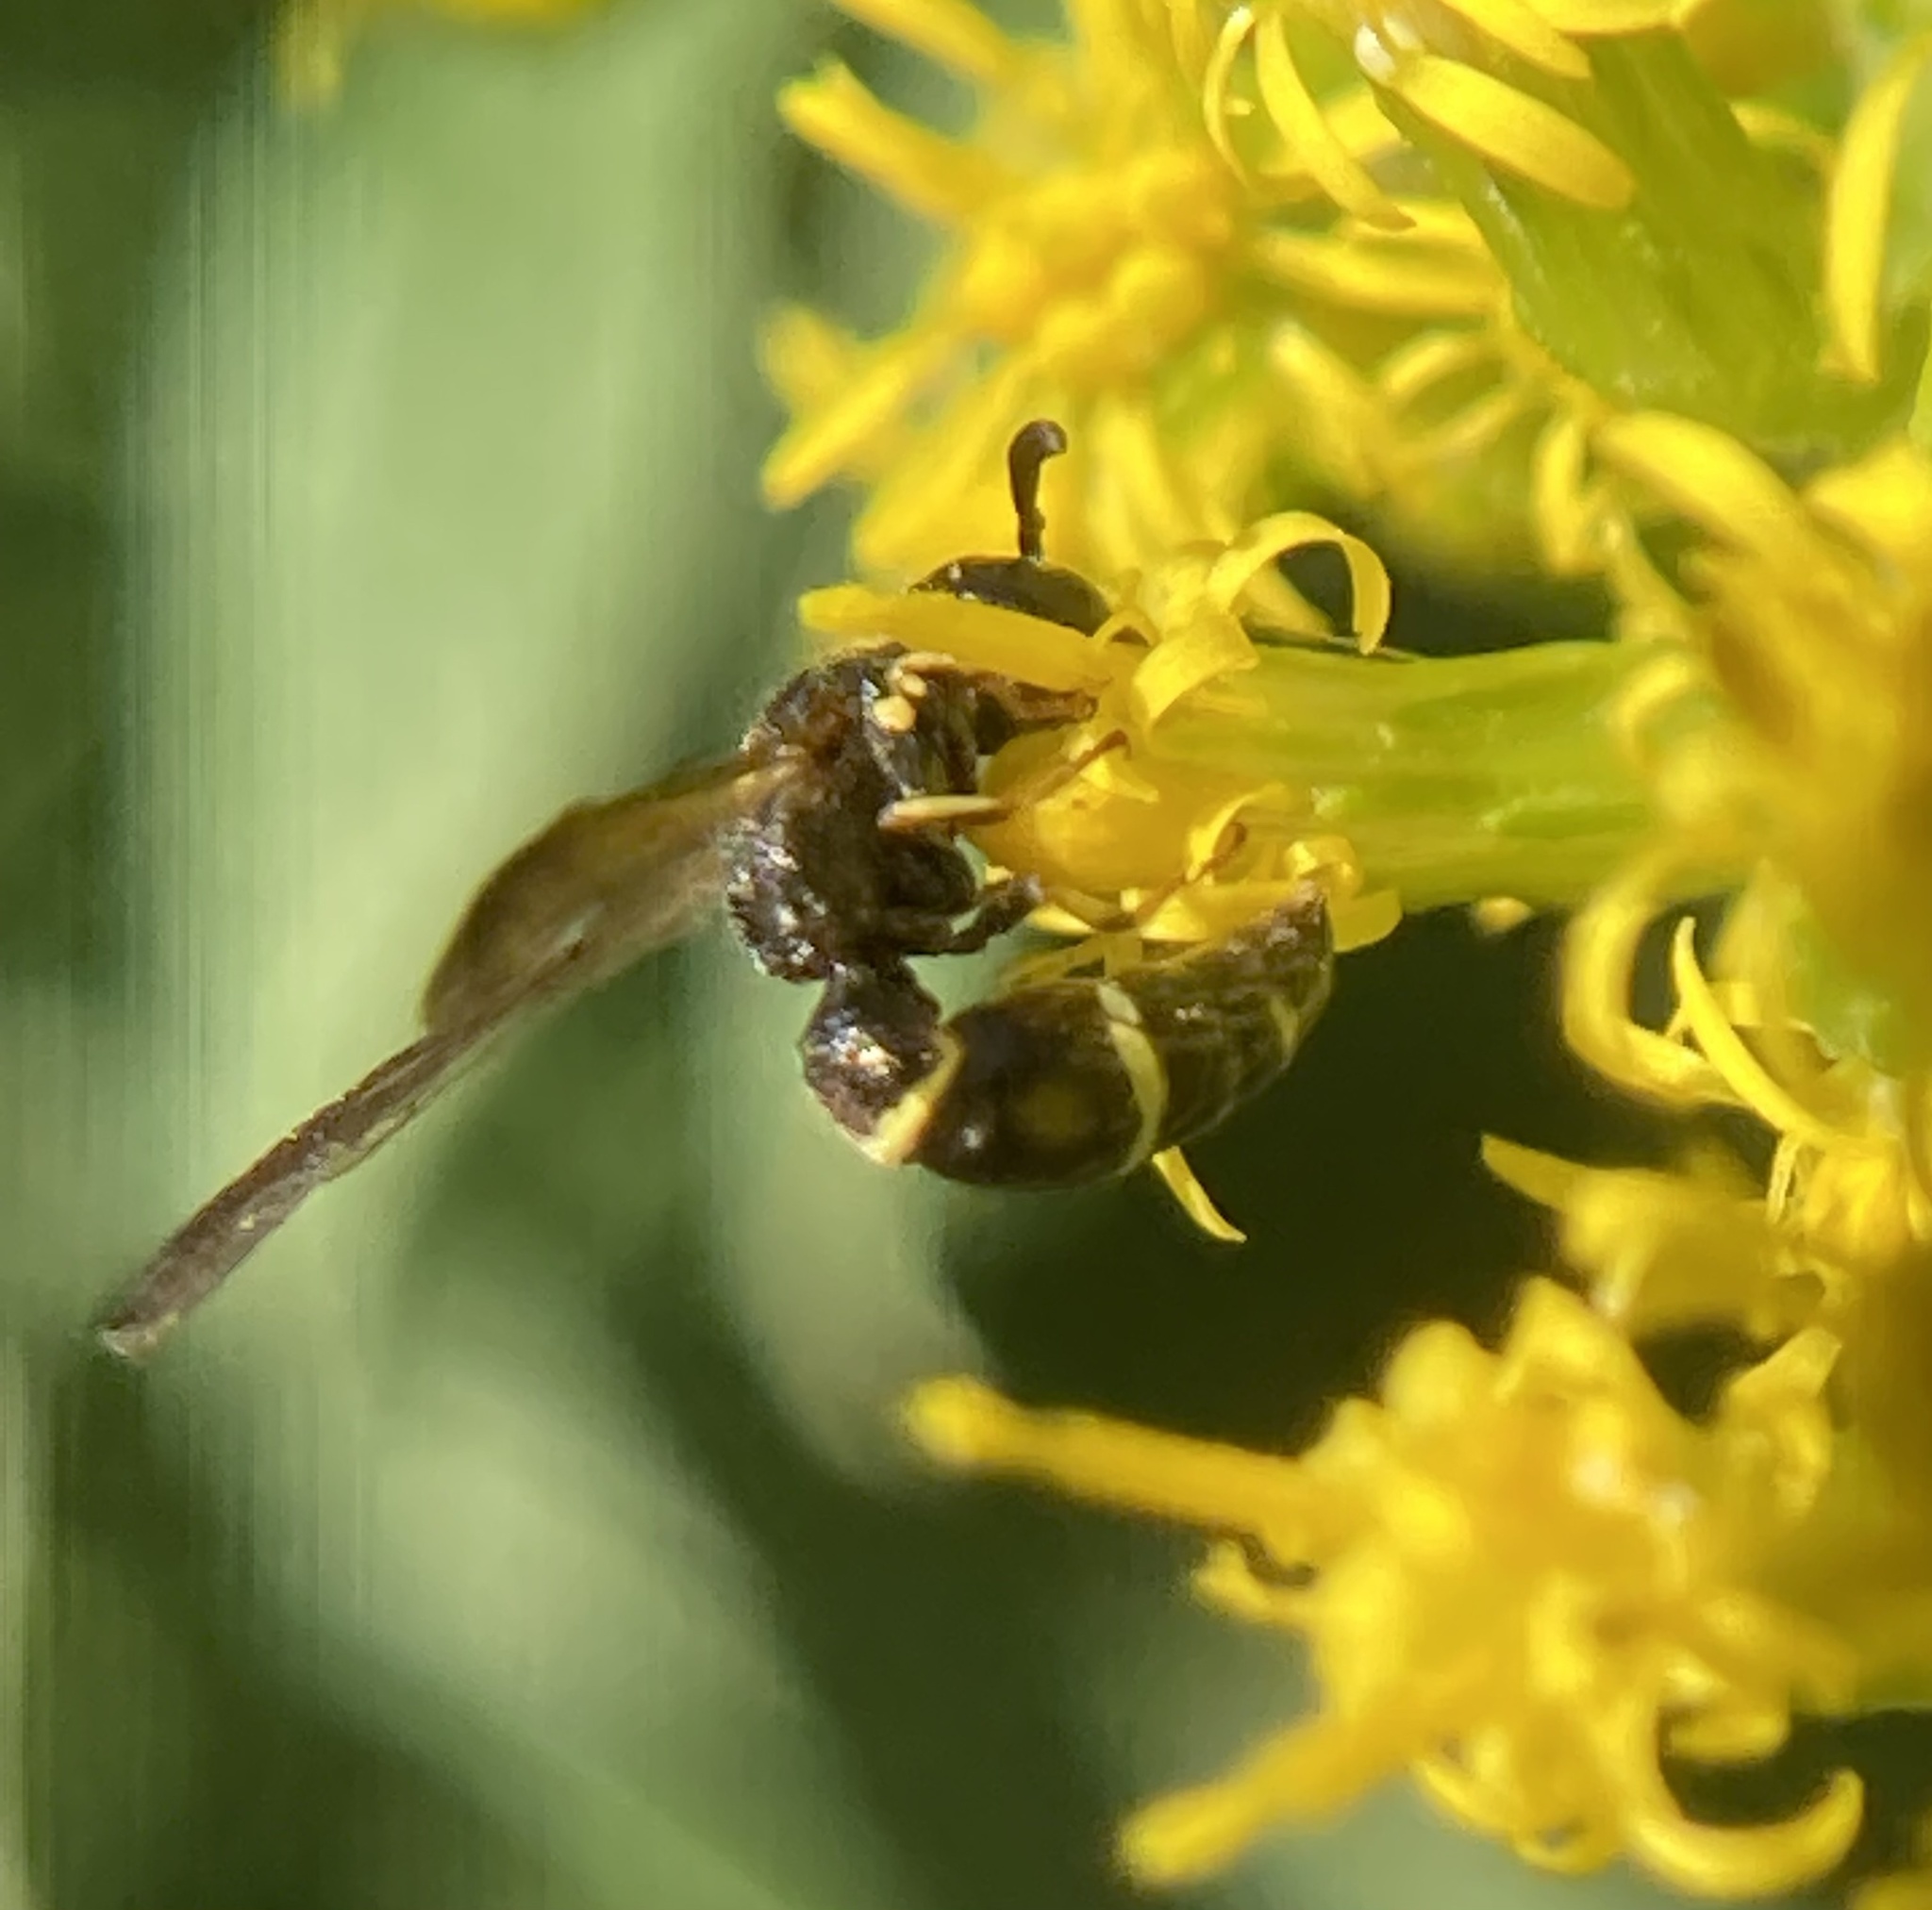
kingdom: Animalia
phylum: Arthropoda
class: Insecta
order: Hymenoptera
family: Eumenidae
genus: Symmorphus
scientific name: Symmorphus canadensis
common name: Canadian potter wasp
